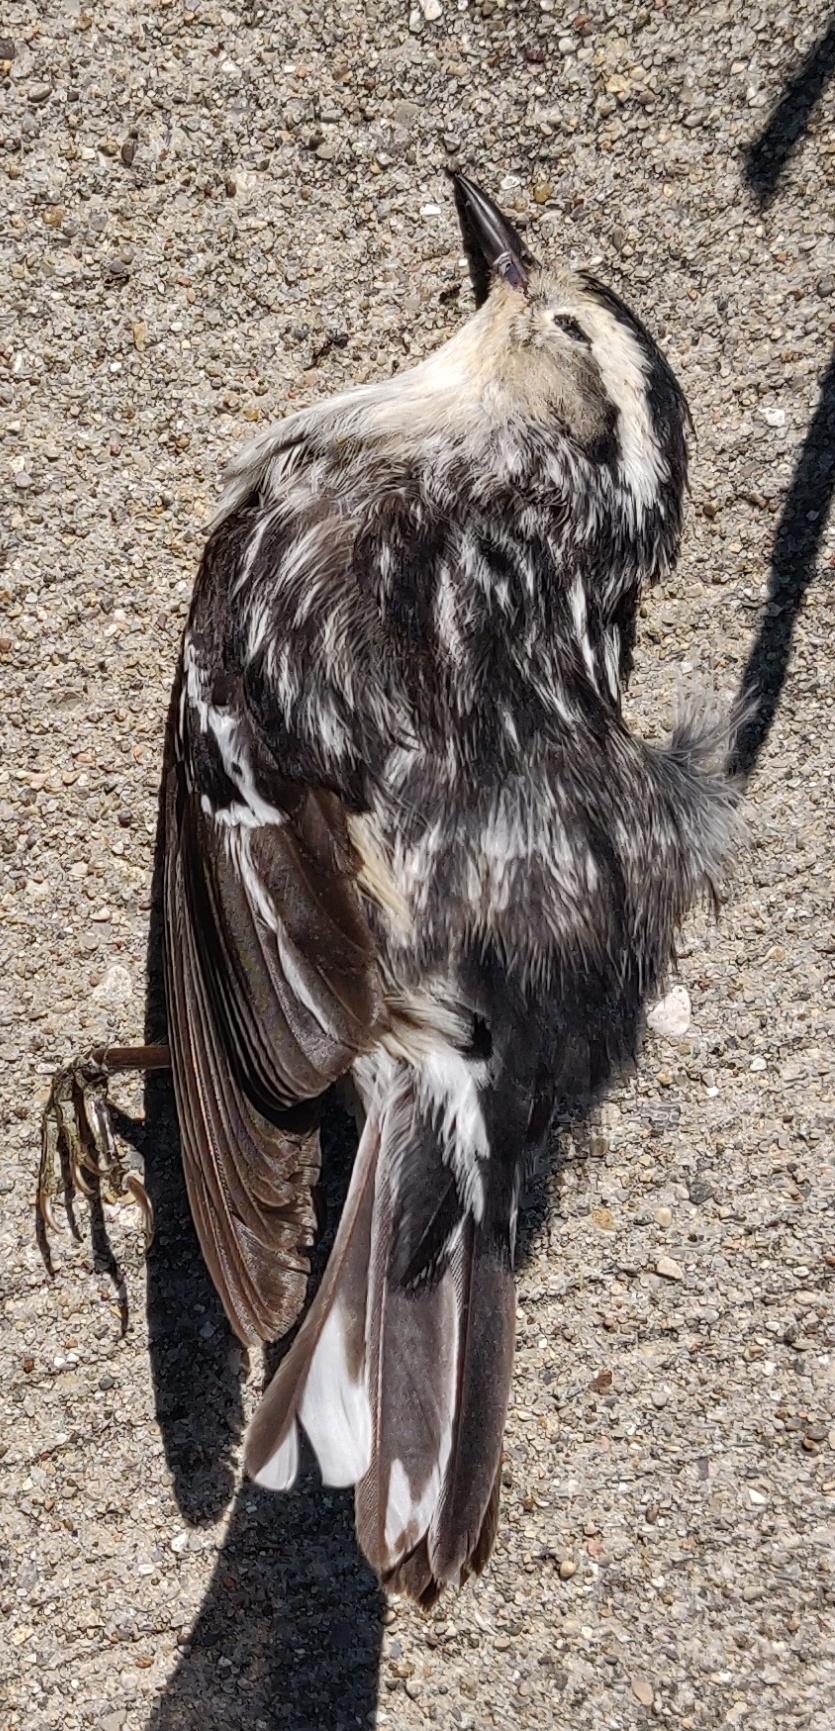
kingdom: Animalia
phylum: Chordata
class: Aves
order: Passeriformes
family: Parulidae
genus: Mniotilta
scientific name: Mniotilta varia
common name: Black-and-white warbler
